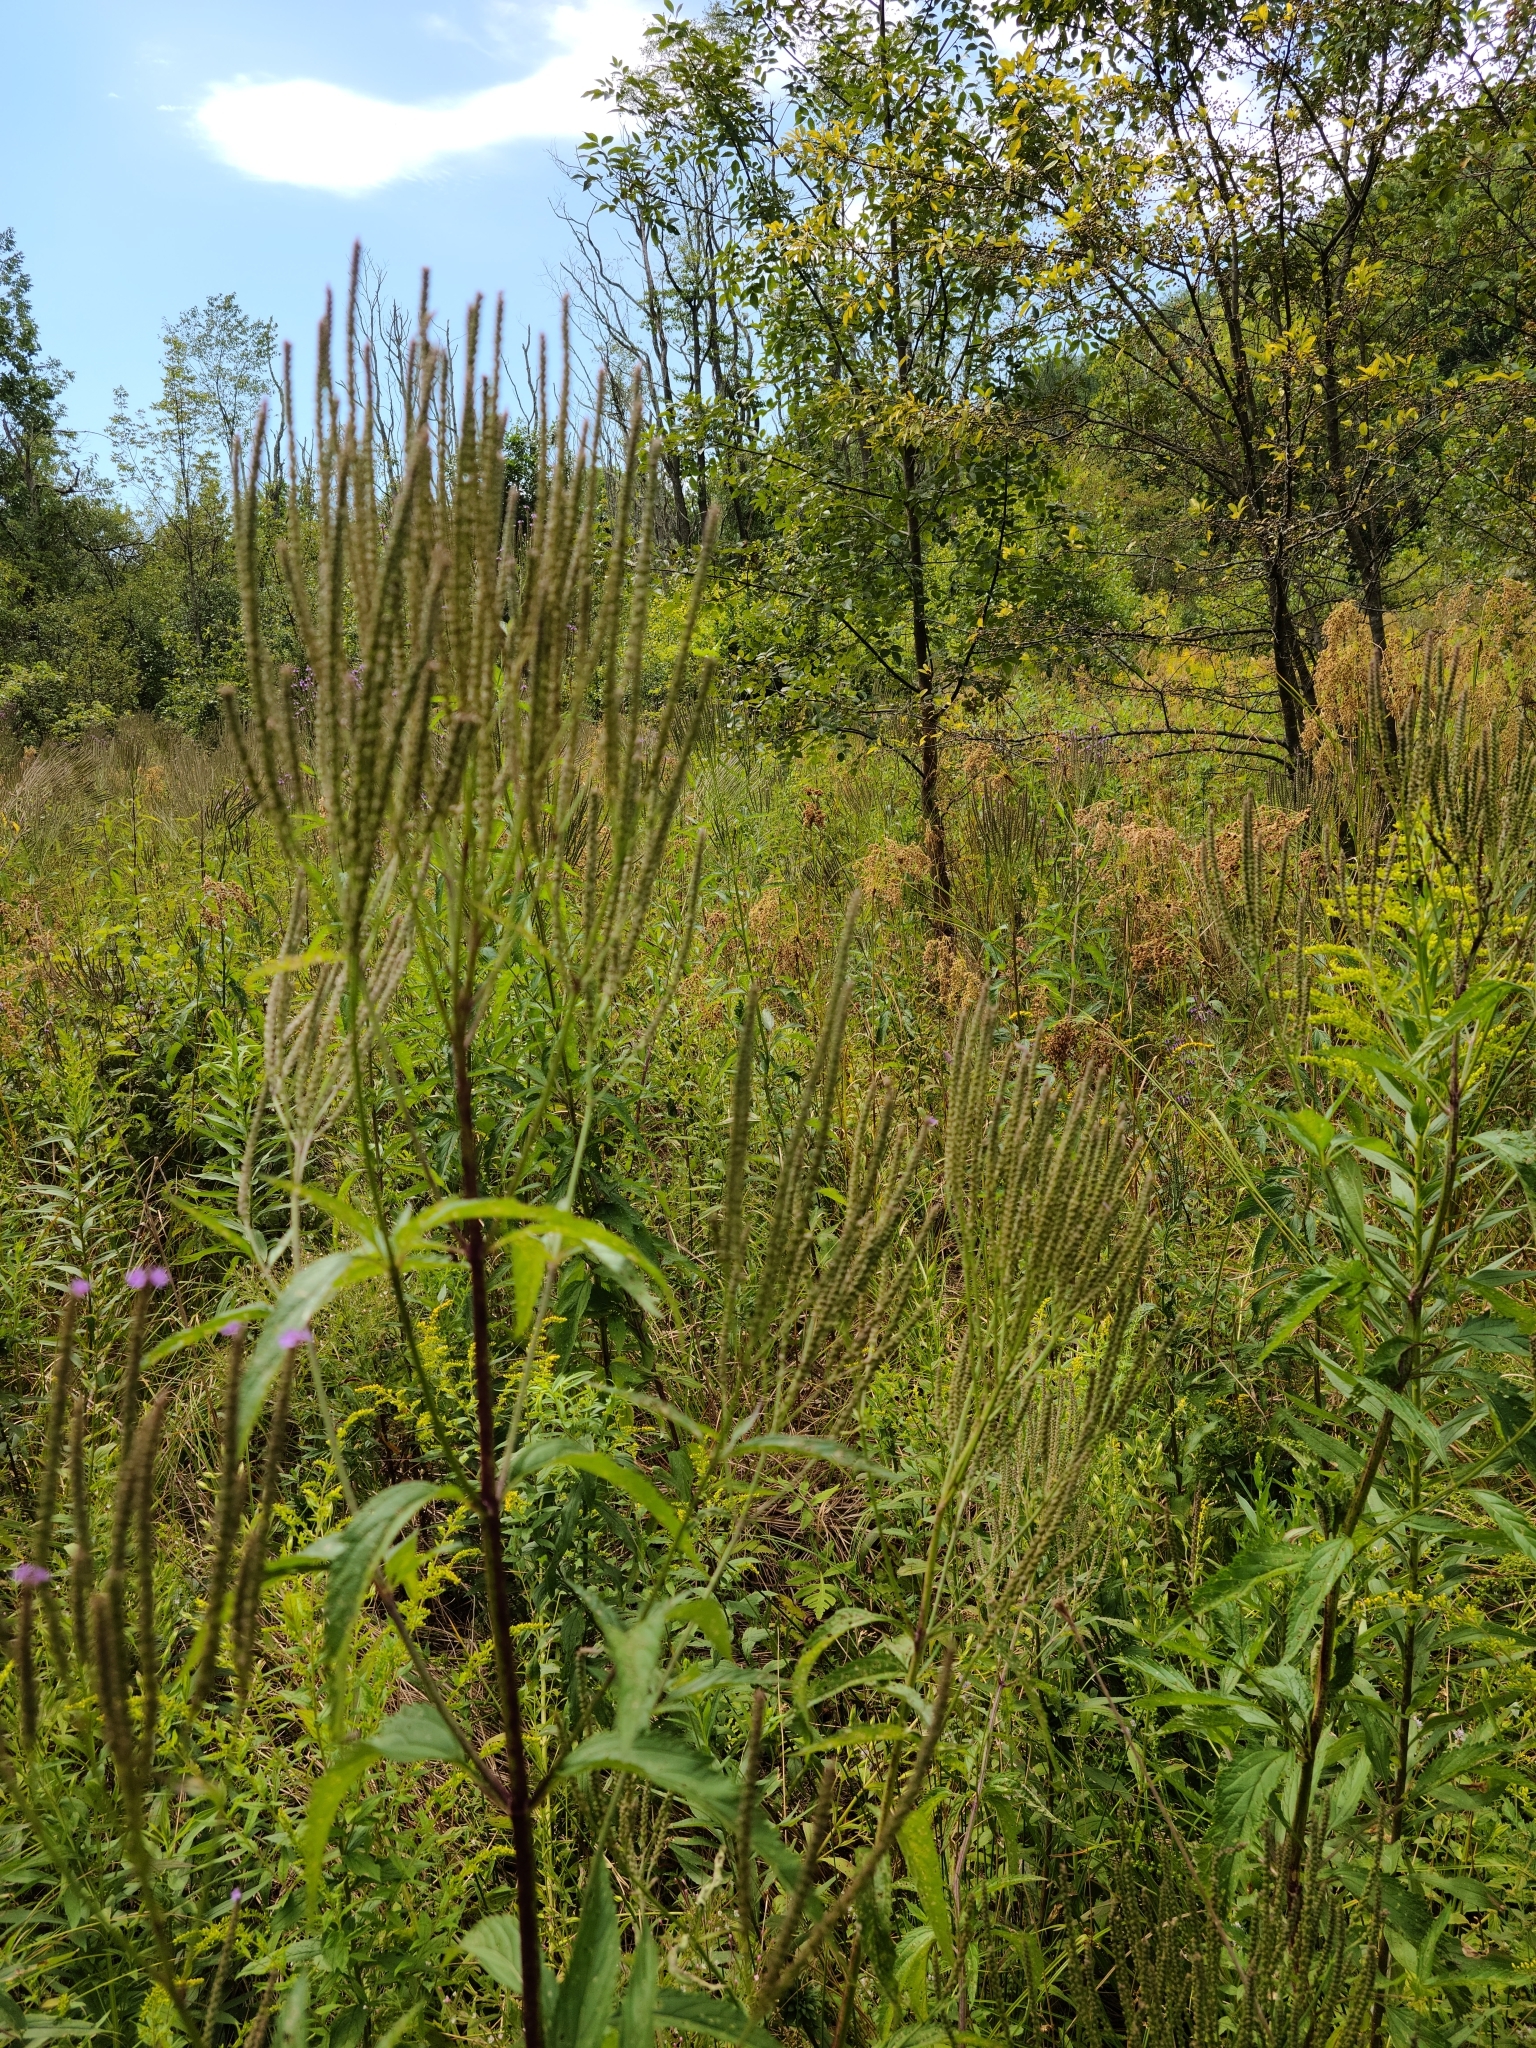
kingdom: Plantae
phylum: Tracheophyta
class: Magnoliopsida
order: Lamiales
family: Verbenaceae
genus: Verbena
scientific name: Verbena hastata
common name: American blue vervain
